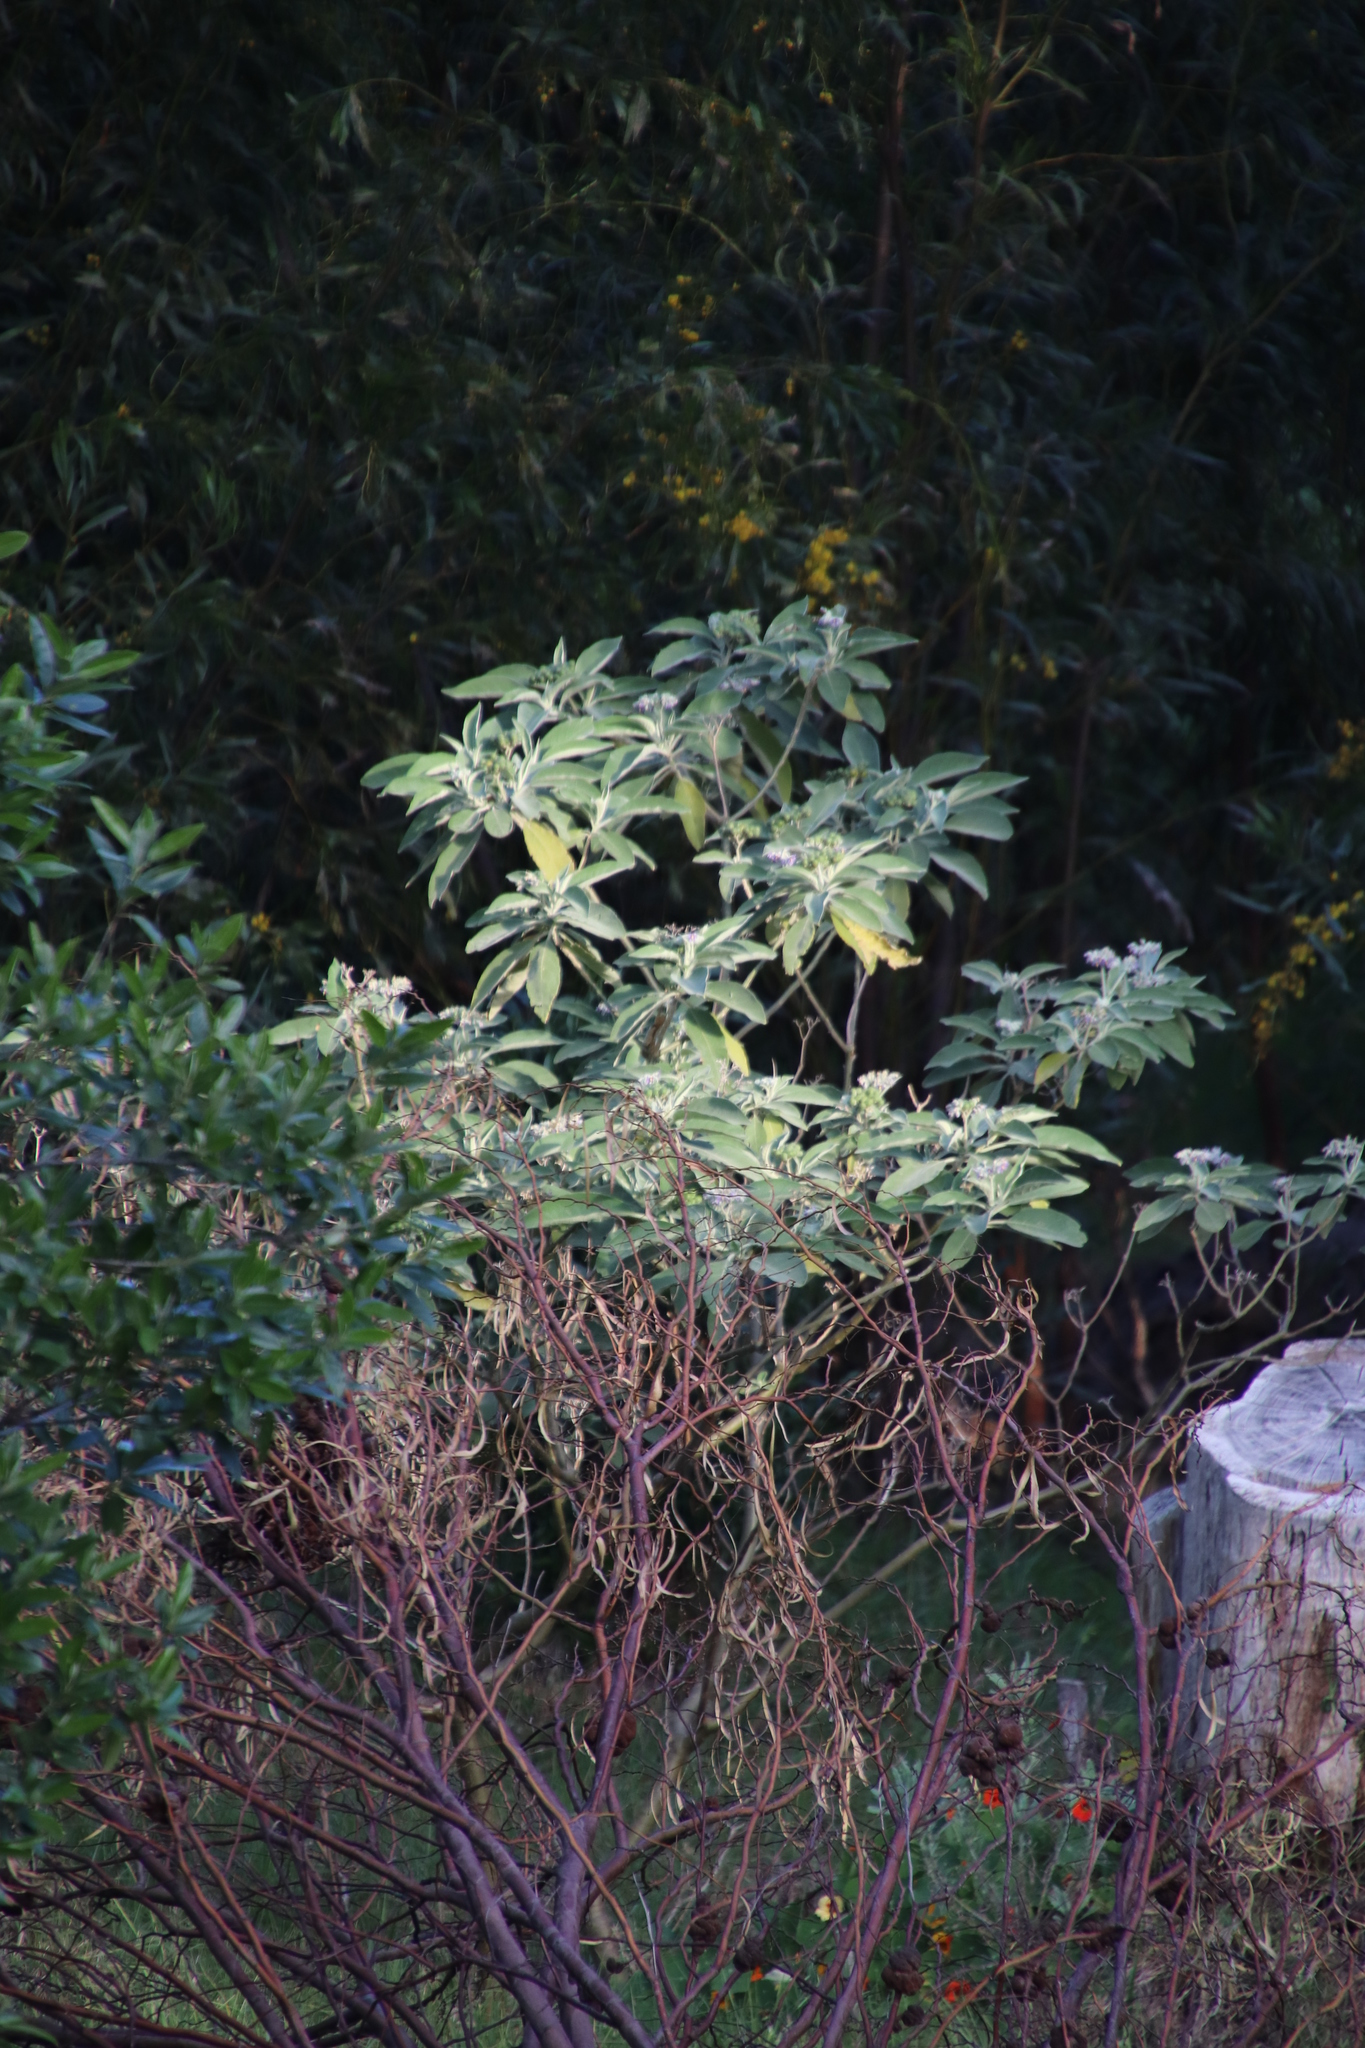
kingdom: Plantae
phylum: Tracheophyta
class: Magnoliopsida
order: Solanales
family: Solanaceae
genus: Solanum
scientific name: Solanum mauritianum
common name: Earleaf nightshade
